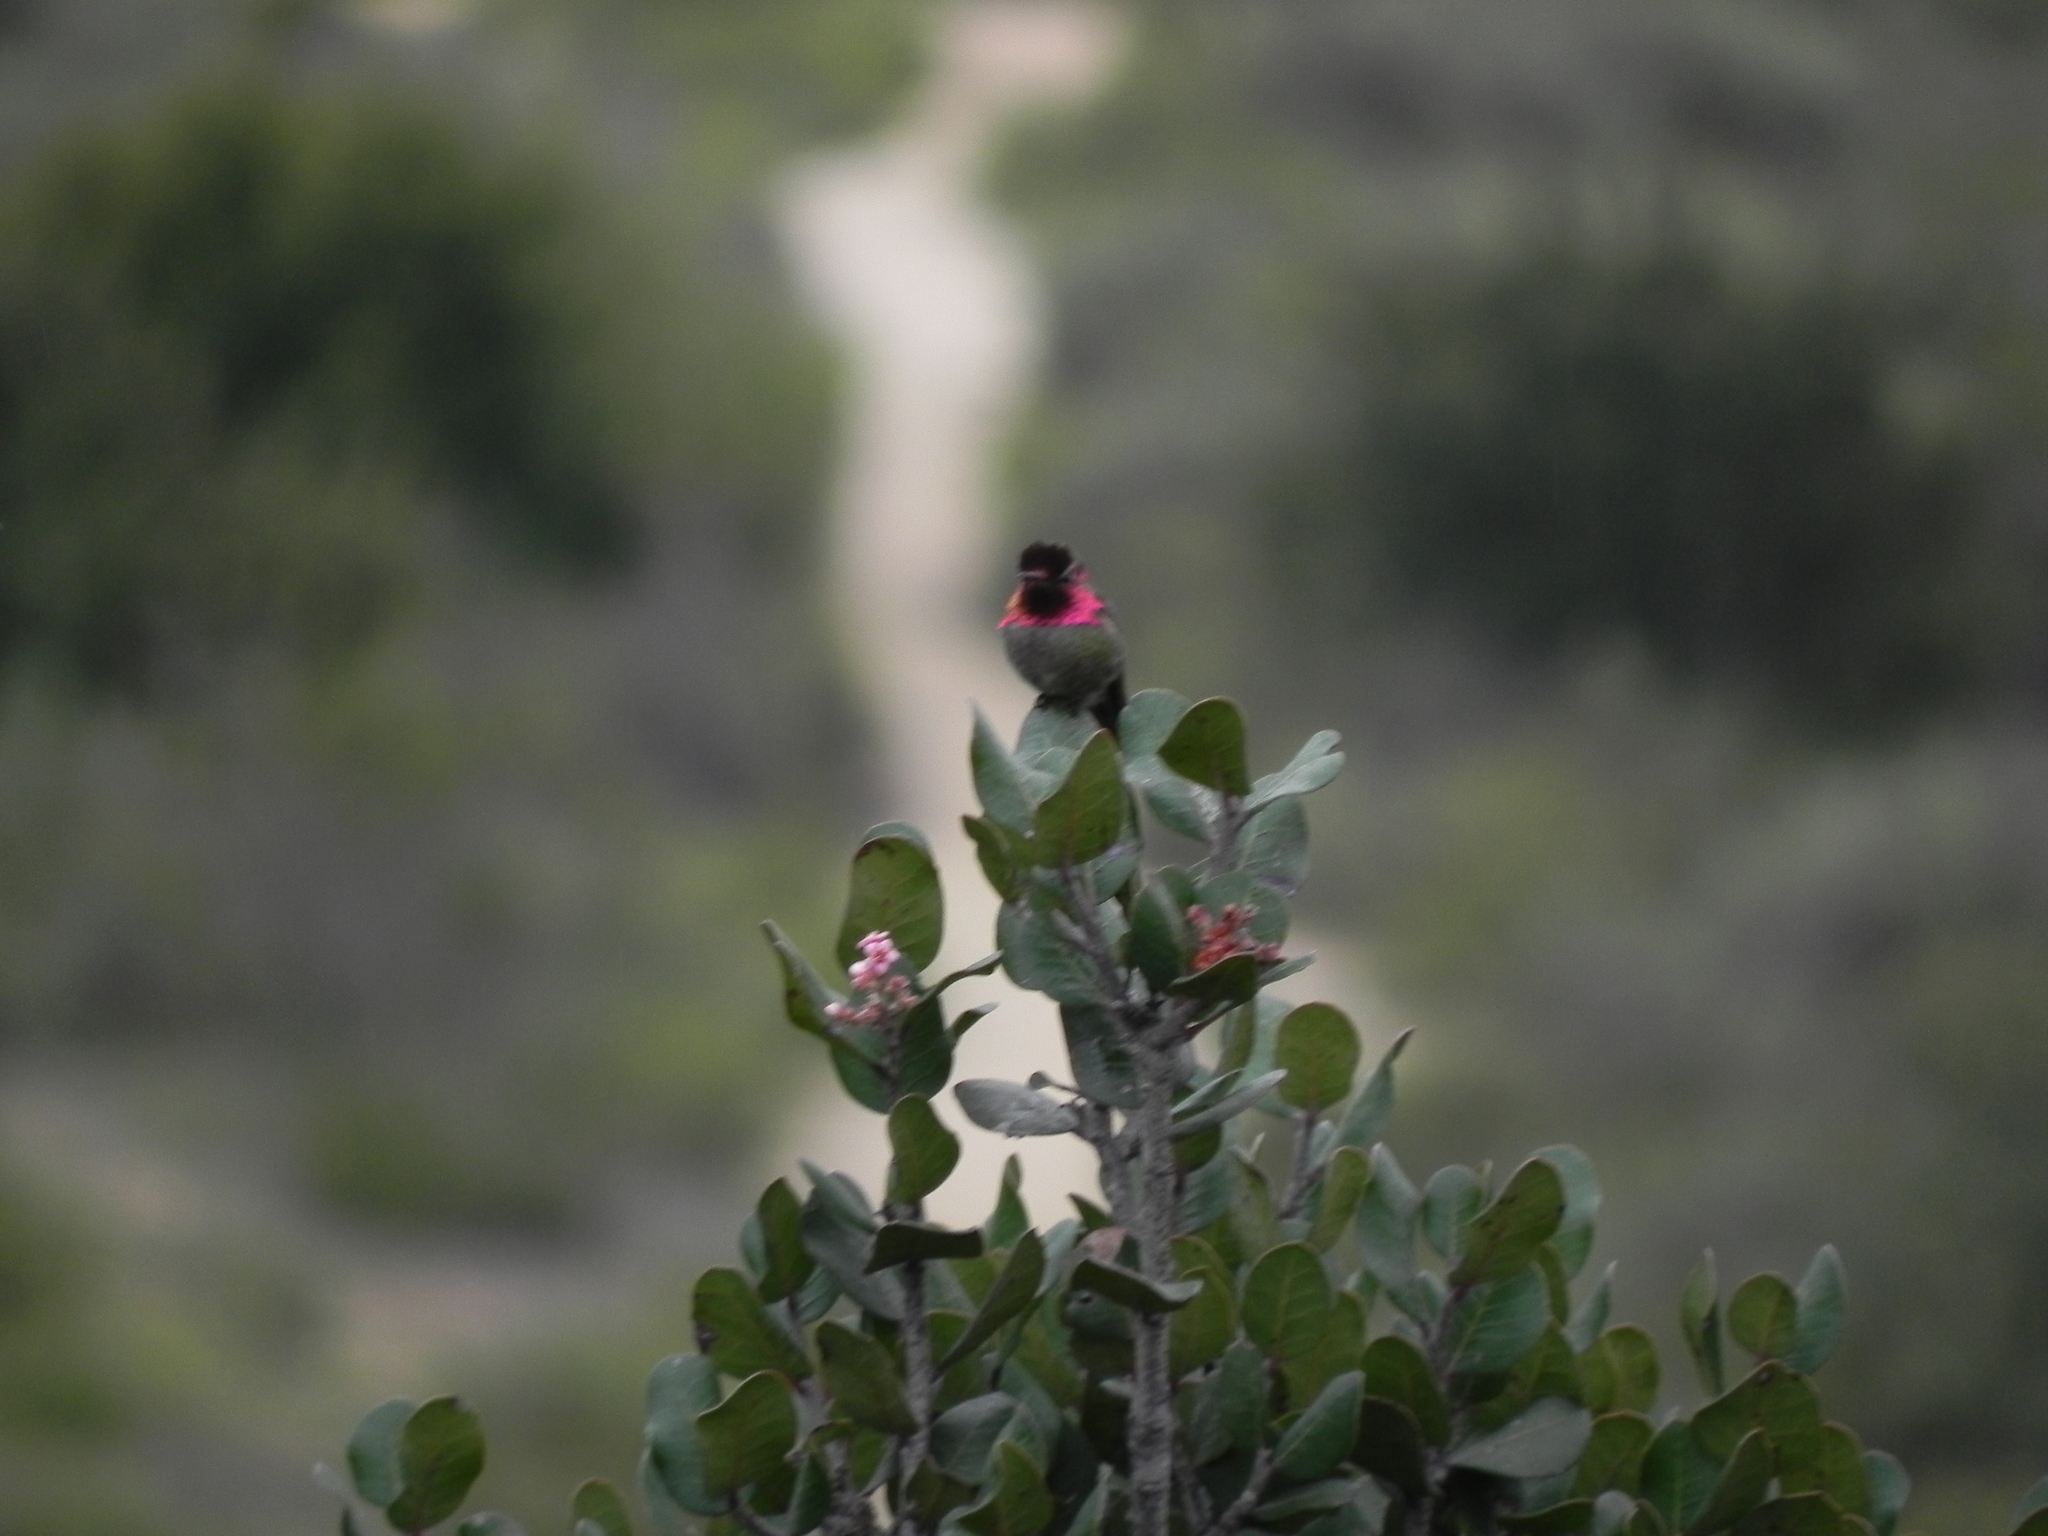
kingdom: Animalia
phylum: Chordata
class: Aves
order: Apodiformes
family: Trochilidae
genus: Calypte
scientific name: Calypte anna
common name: Anna's hummingbird
